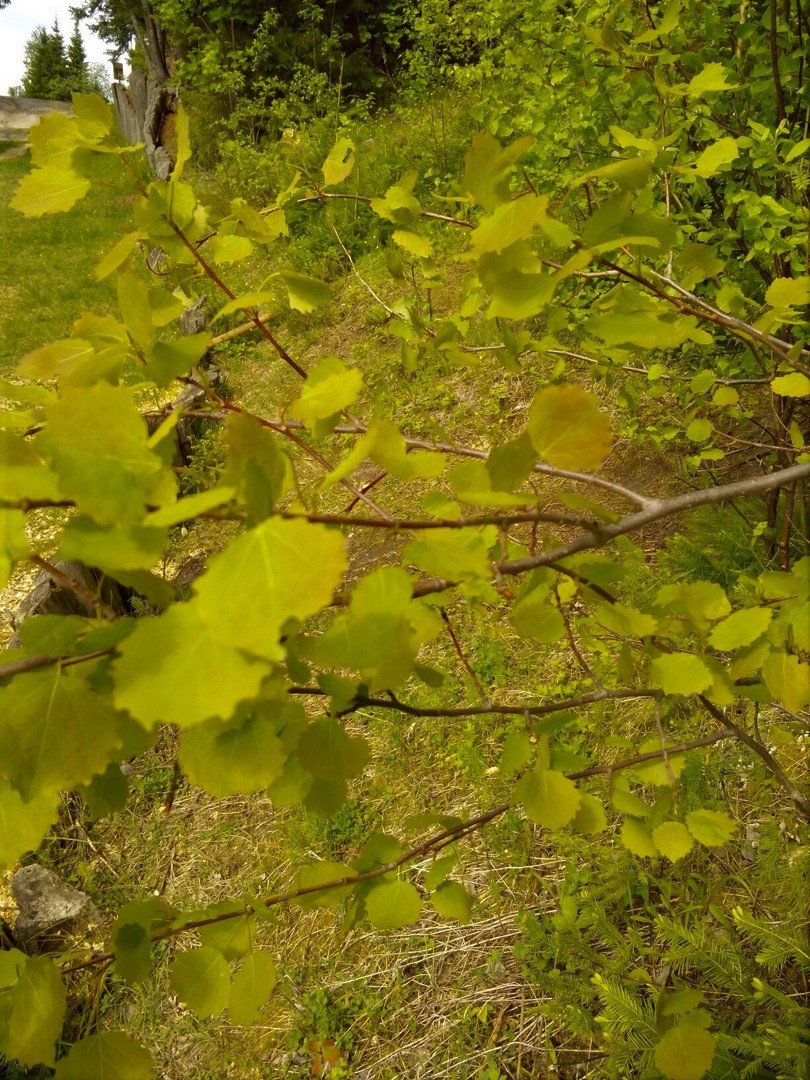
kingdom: Plantae
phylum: Tracheophyta
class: Magnoliopsida
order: Malpighiales
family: Salicaceae
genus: Populus
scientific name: Populus tremula
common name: European aspen
